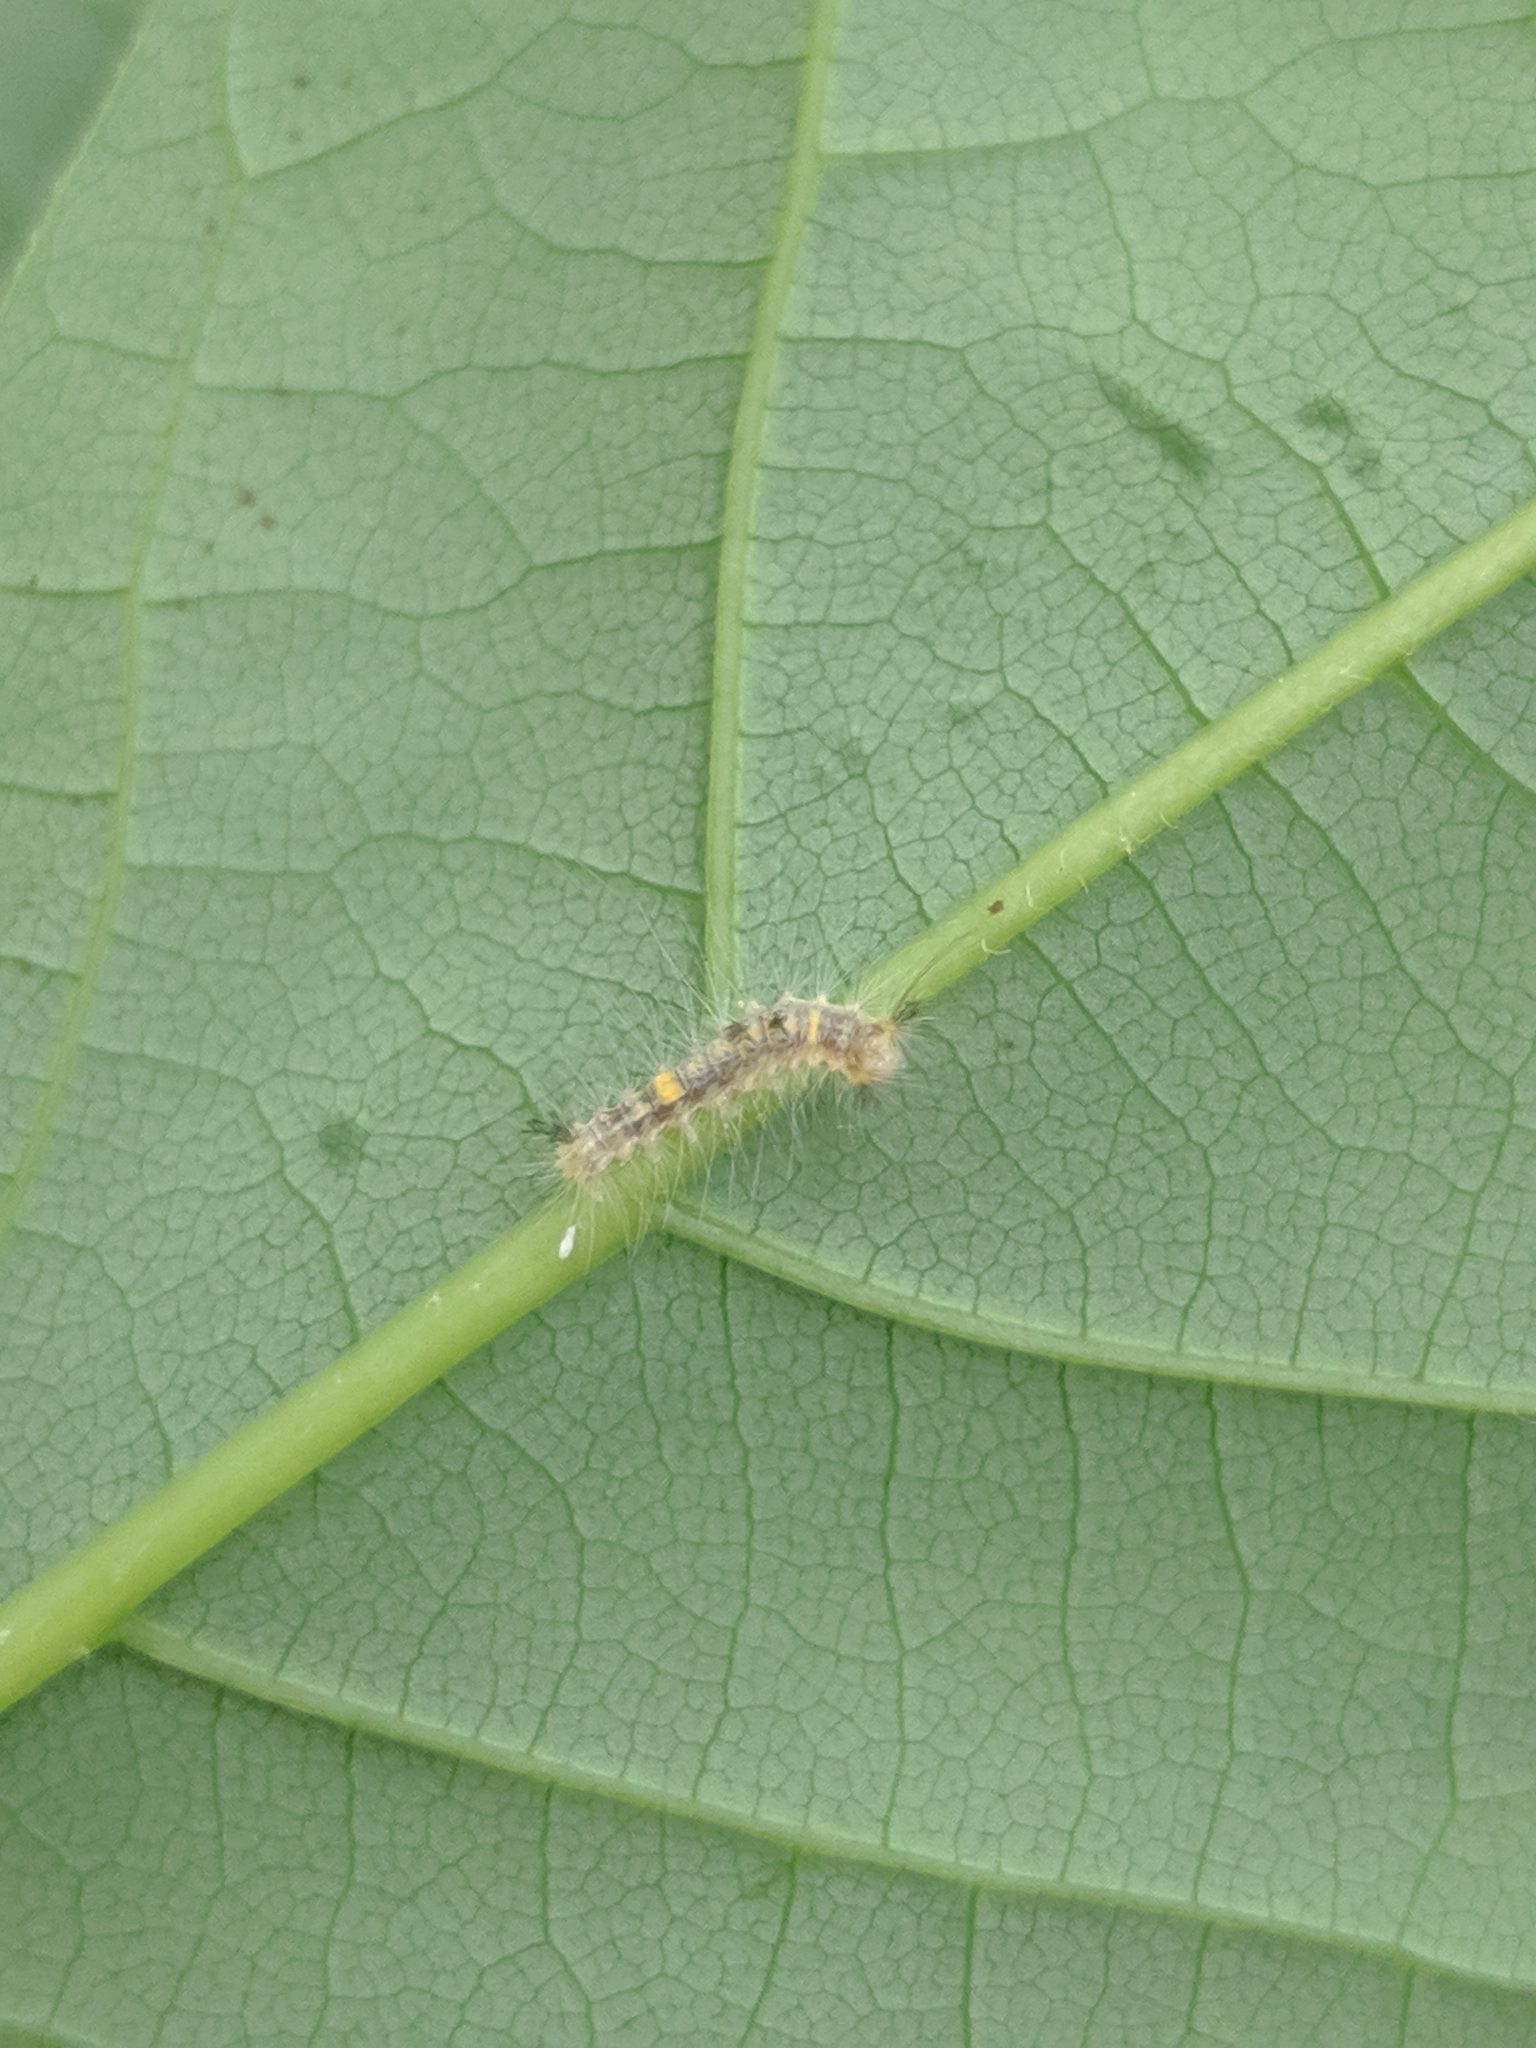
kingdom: Animalia
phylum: Arthropoda
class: Insecta
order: Lepidoptera
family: Erebidae
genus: Orgyia
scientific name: Orgyia definita
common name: Definite tussock moth
